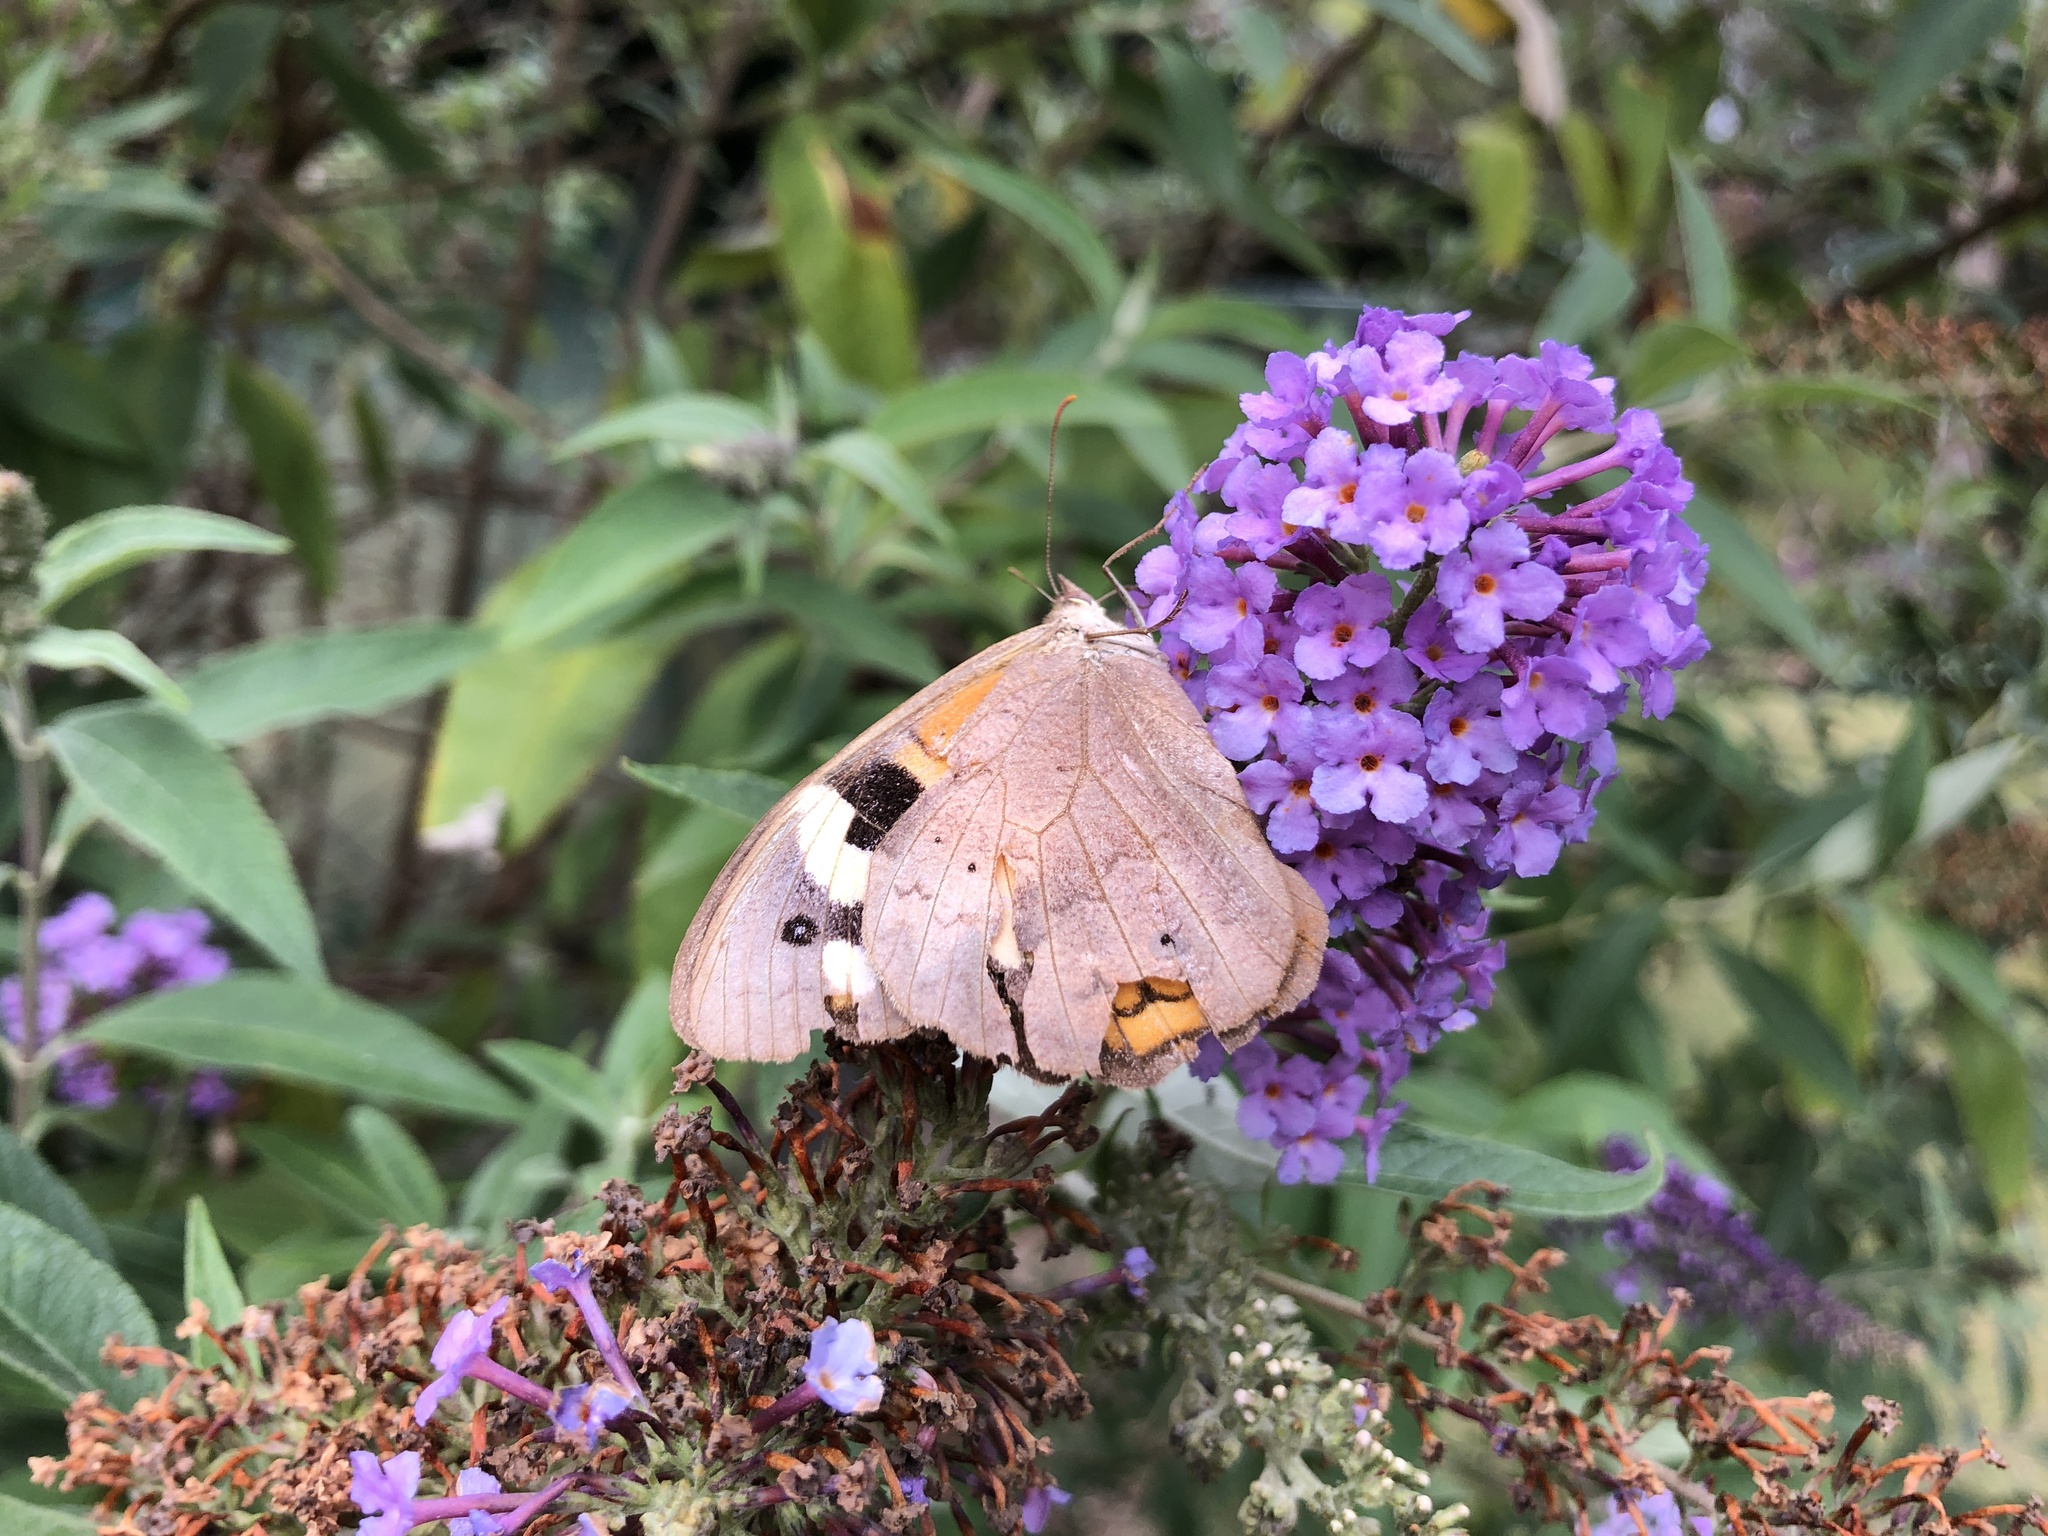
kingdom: Animalia
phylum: Arthropoda
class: Insecta
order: Lepidoptera
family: Nymphalidae
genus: Heteronympha
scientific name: Heteronympha merope
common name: Common brown
